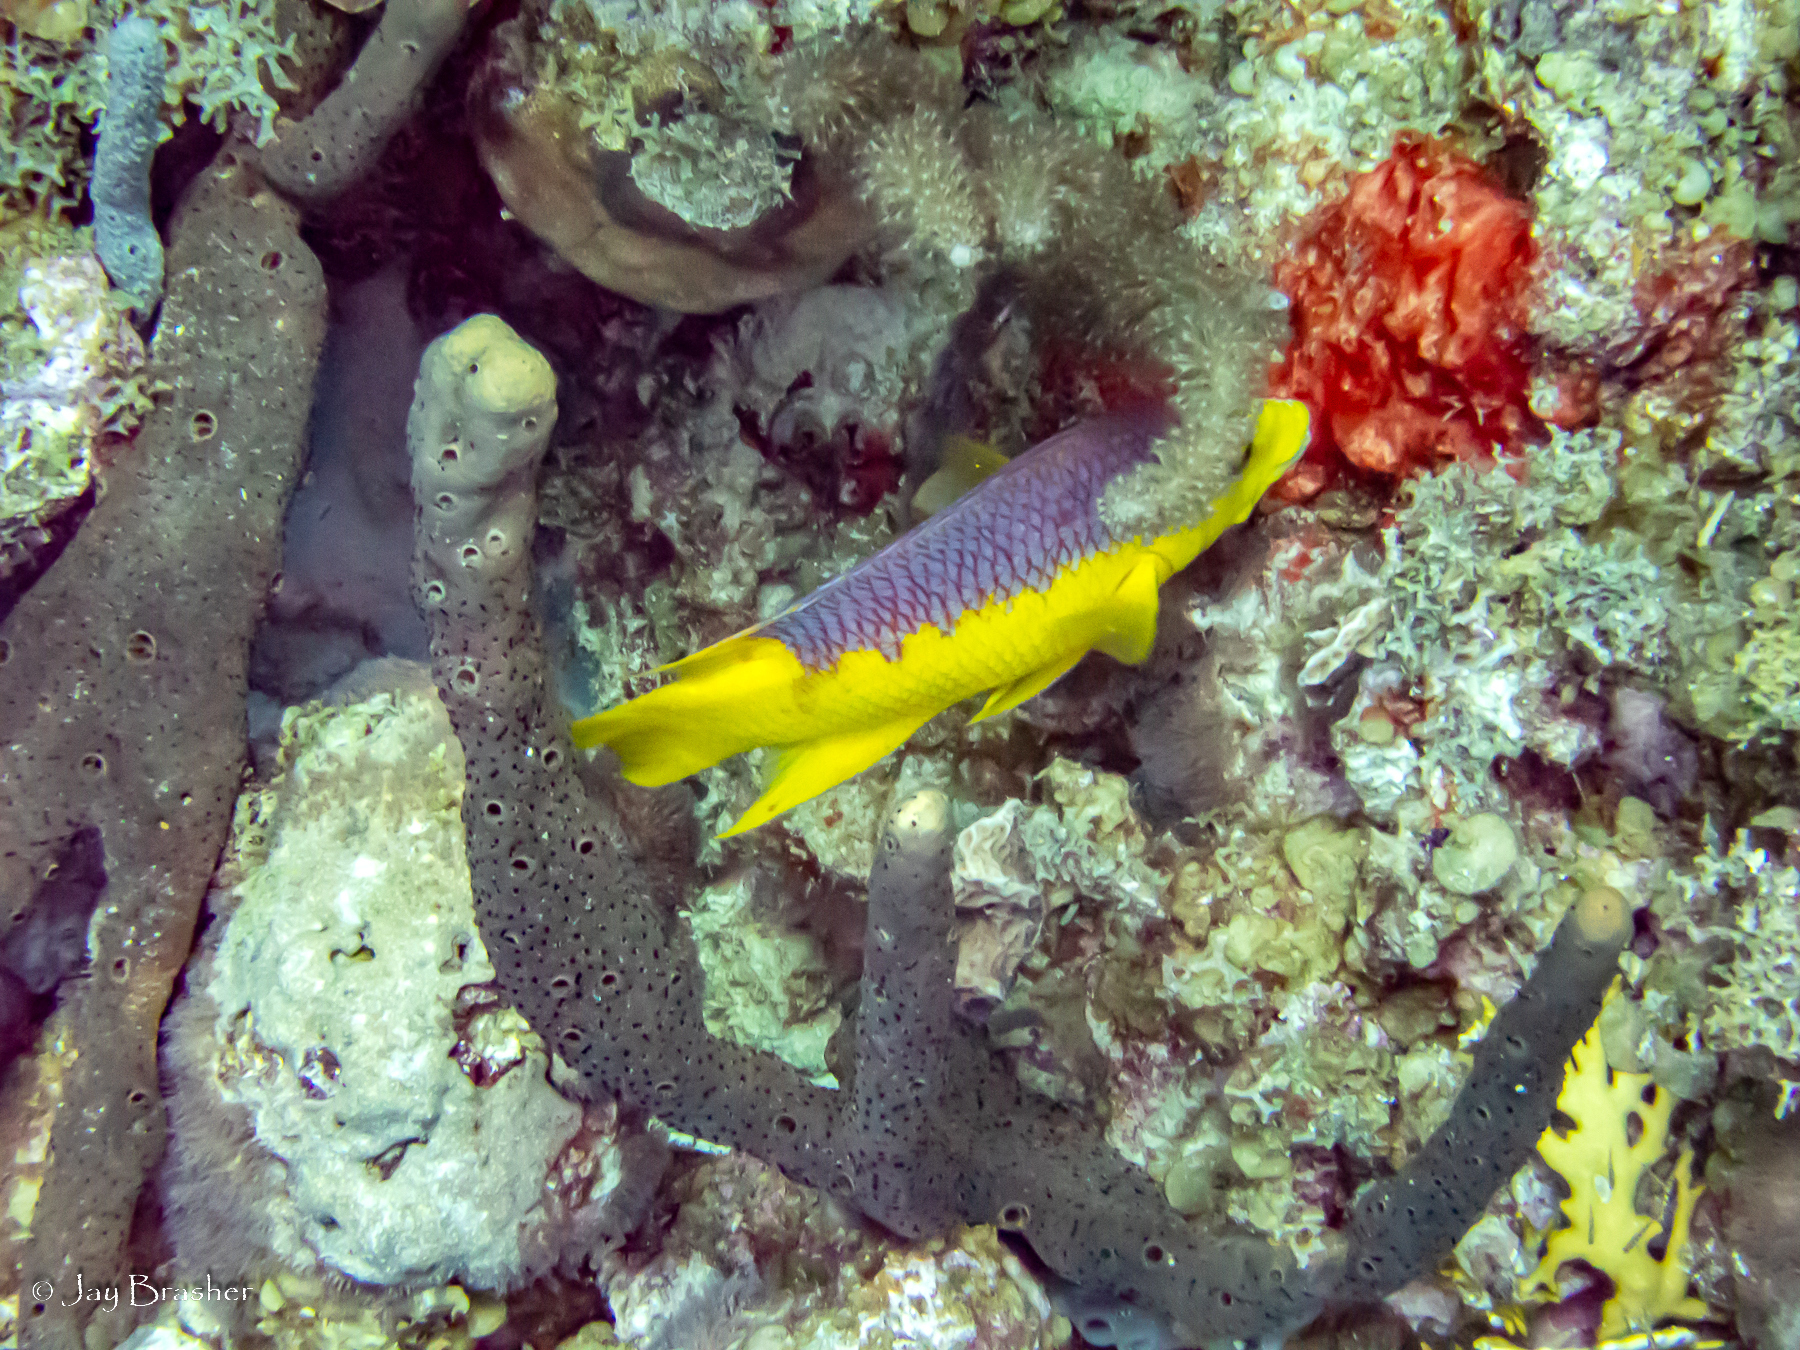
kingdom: Animalia
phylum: Porifera
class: Demospongiae
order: Haplosclerida
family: Niphatidae
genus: Niphates
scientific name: Niphates erecta
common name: Lavender rope sponge
